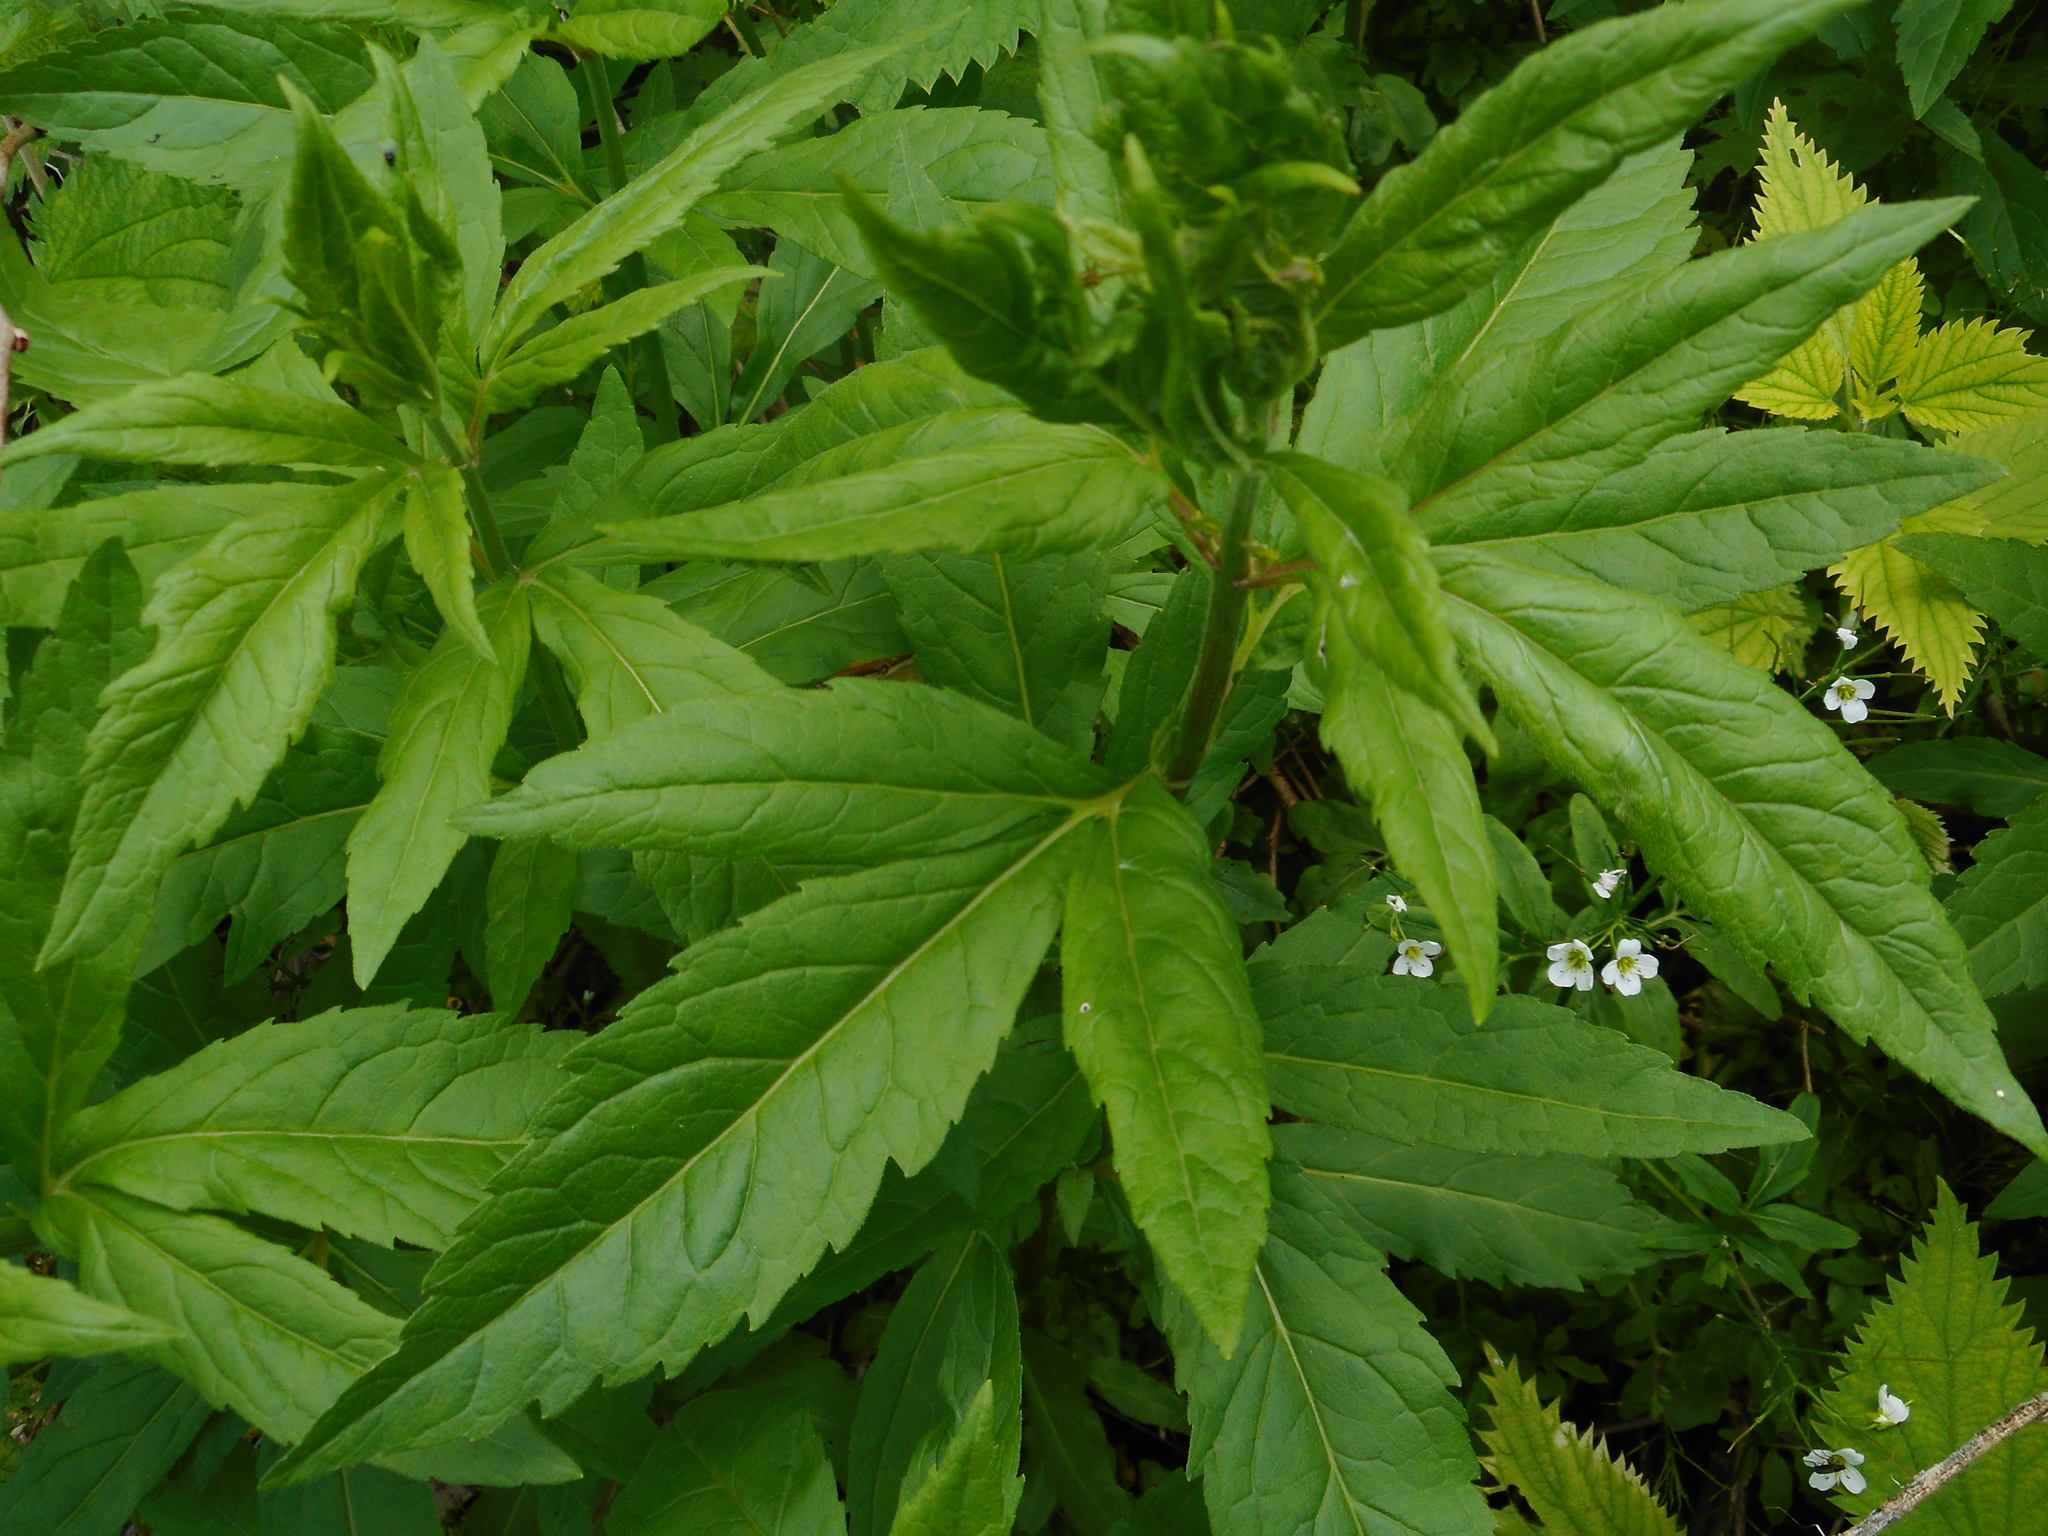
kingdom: Plantae
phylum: Tracheophyta
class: Magnoliopsida
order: Asterales
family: Asteraceae
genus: Eupatorium
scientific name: Eupatorium cannabinum
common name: Hemp-agrimony
